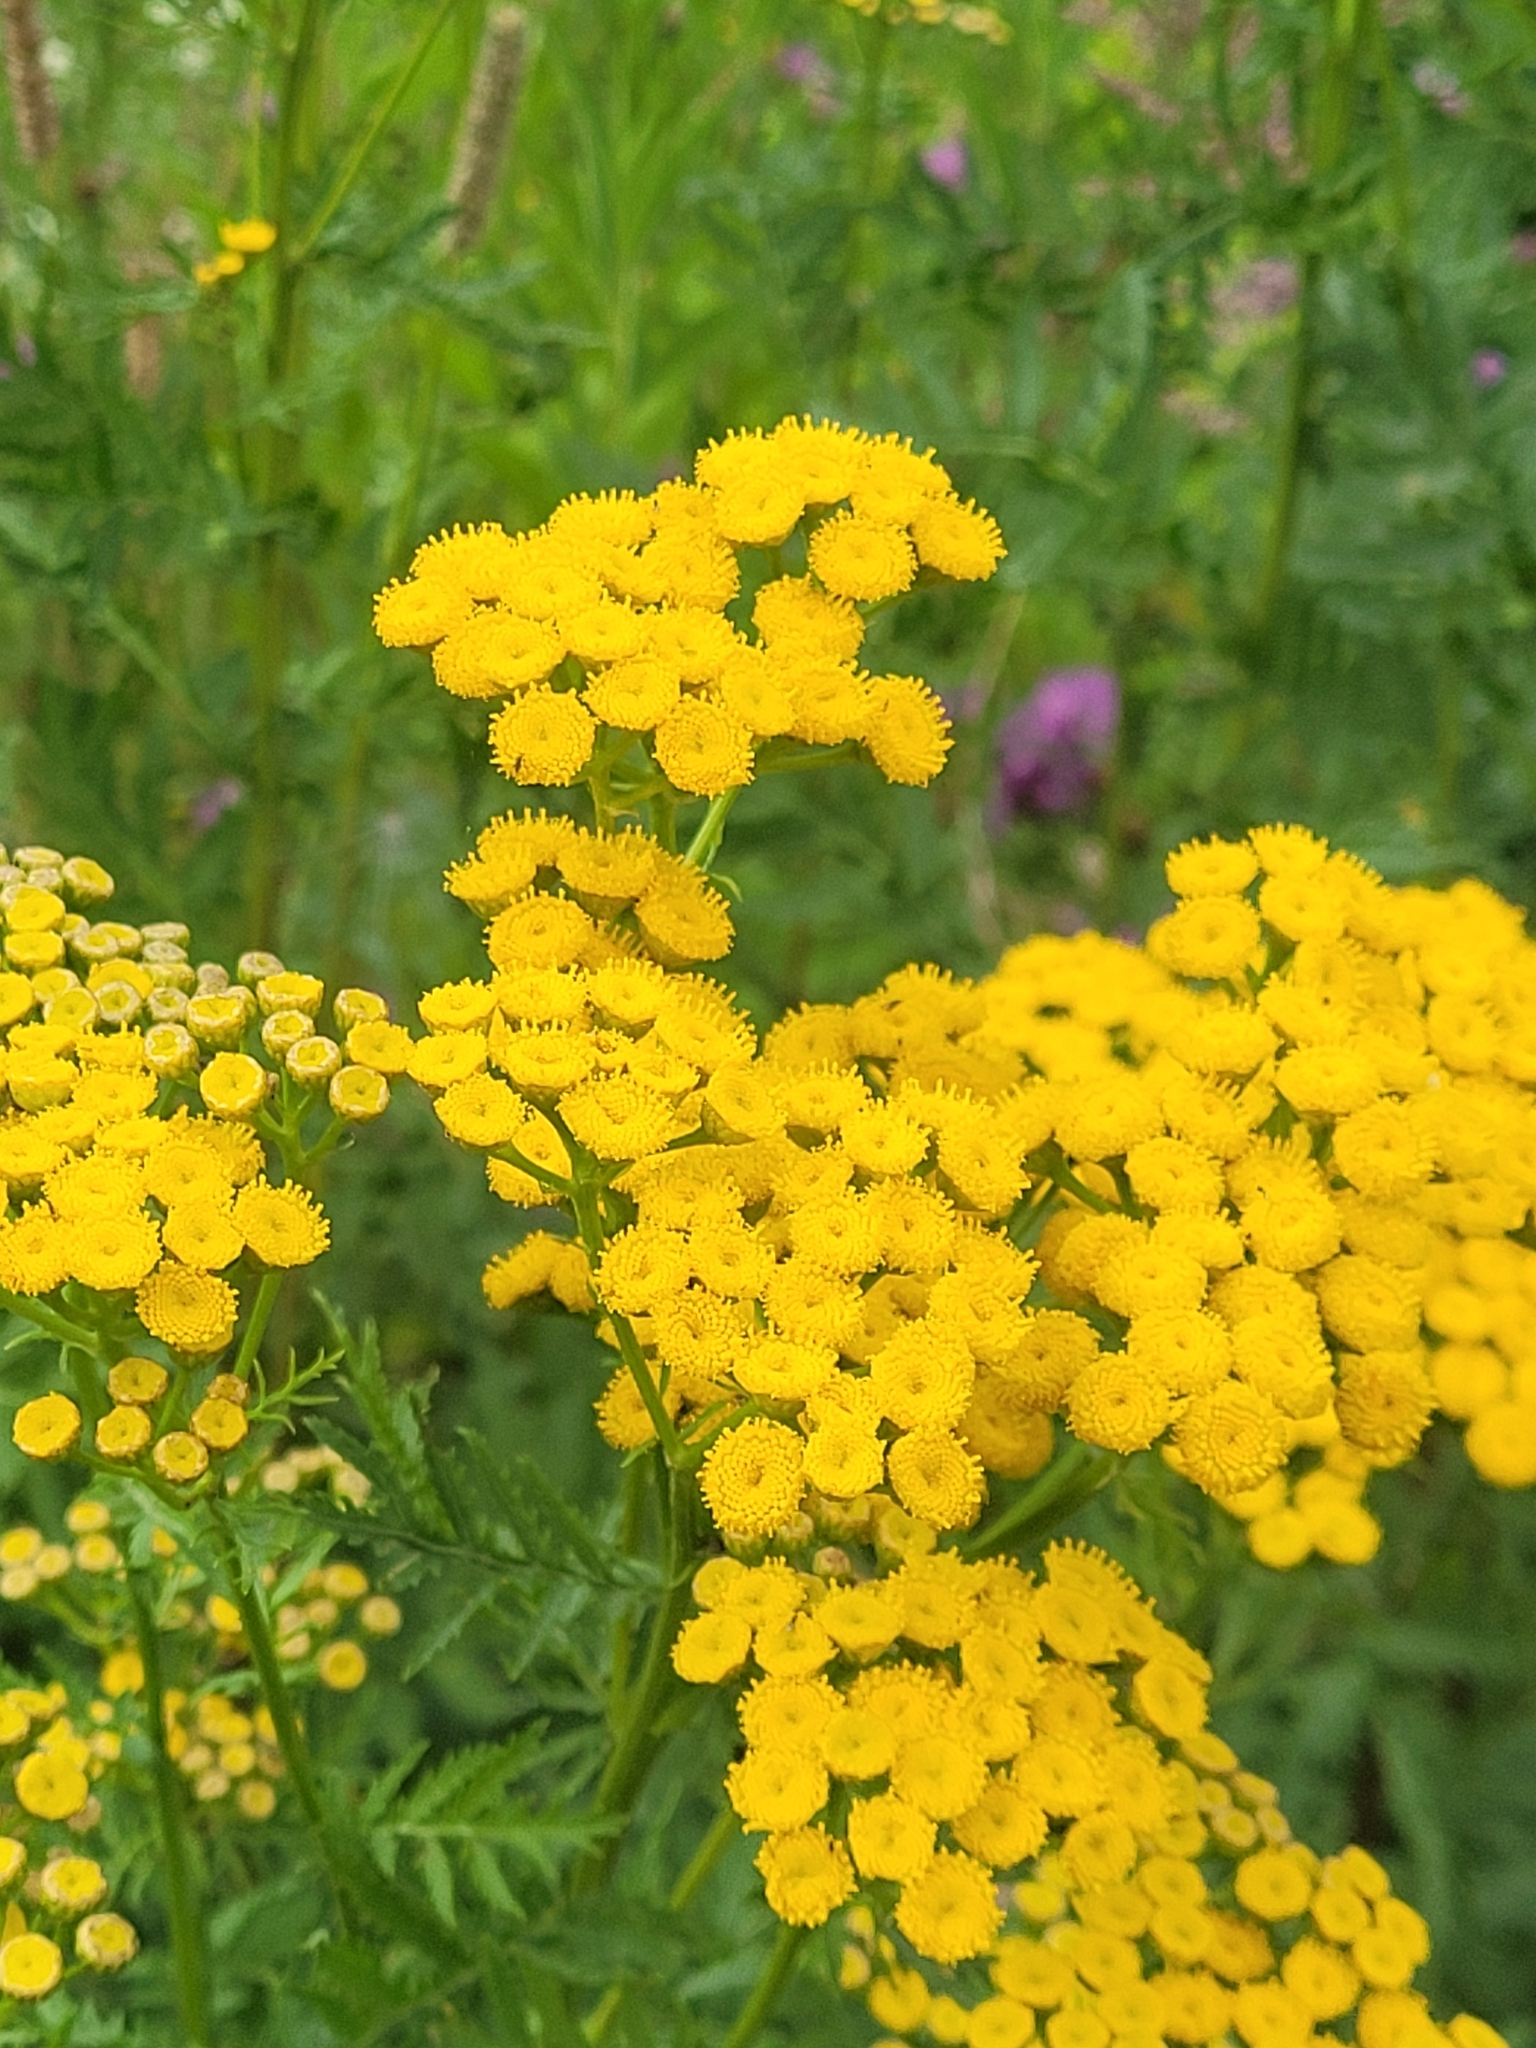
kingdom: Plantae
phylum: Tracheophyta
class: Magnoliopsida
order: Asterales
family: Asteraceae
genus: Tanacetum
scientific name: Tanacetum vulgare
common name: Common tansy
